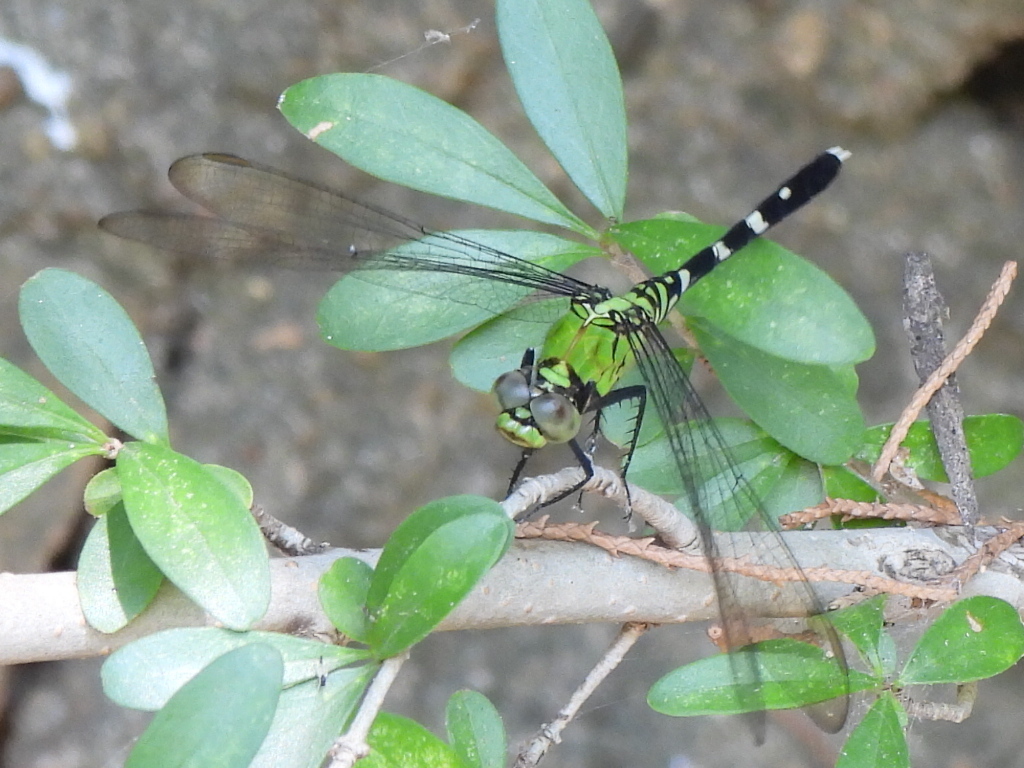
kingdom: Animalia
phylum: Arthropoda
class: Insecta
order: Odonata
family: Libellulidae
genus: Erythemis
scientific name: Erythemis simplicicollis
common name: Eastern pondhawk
